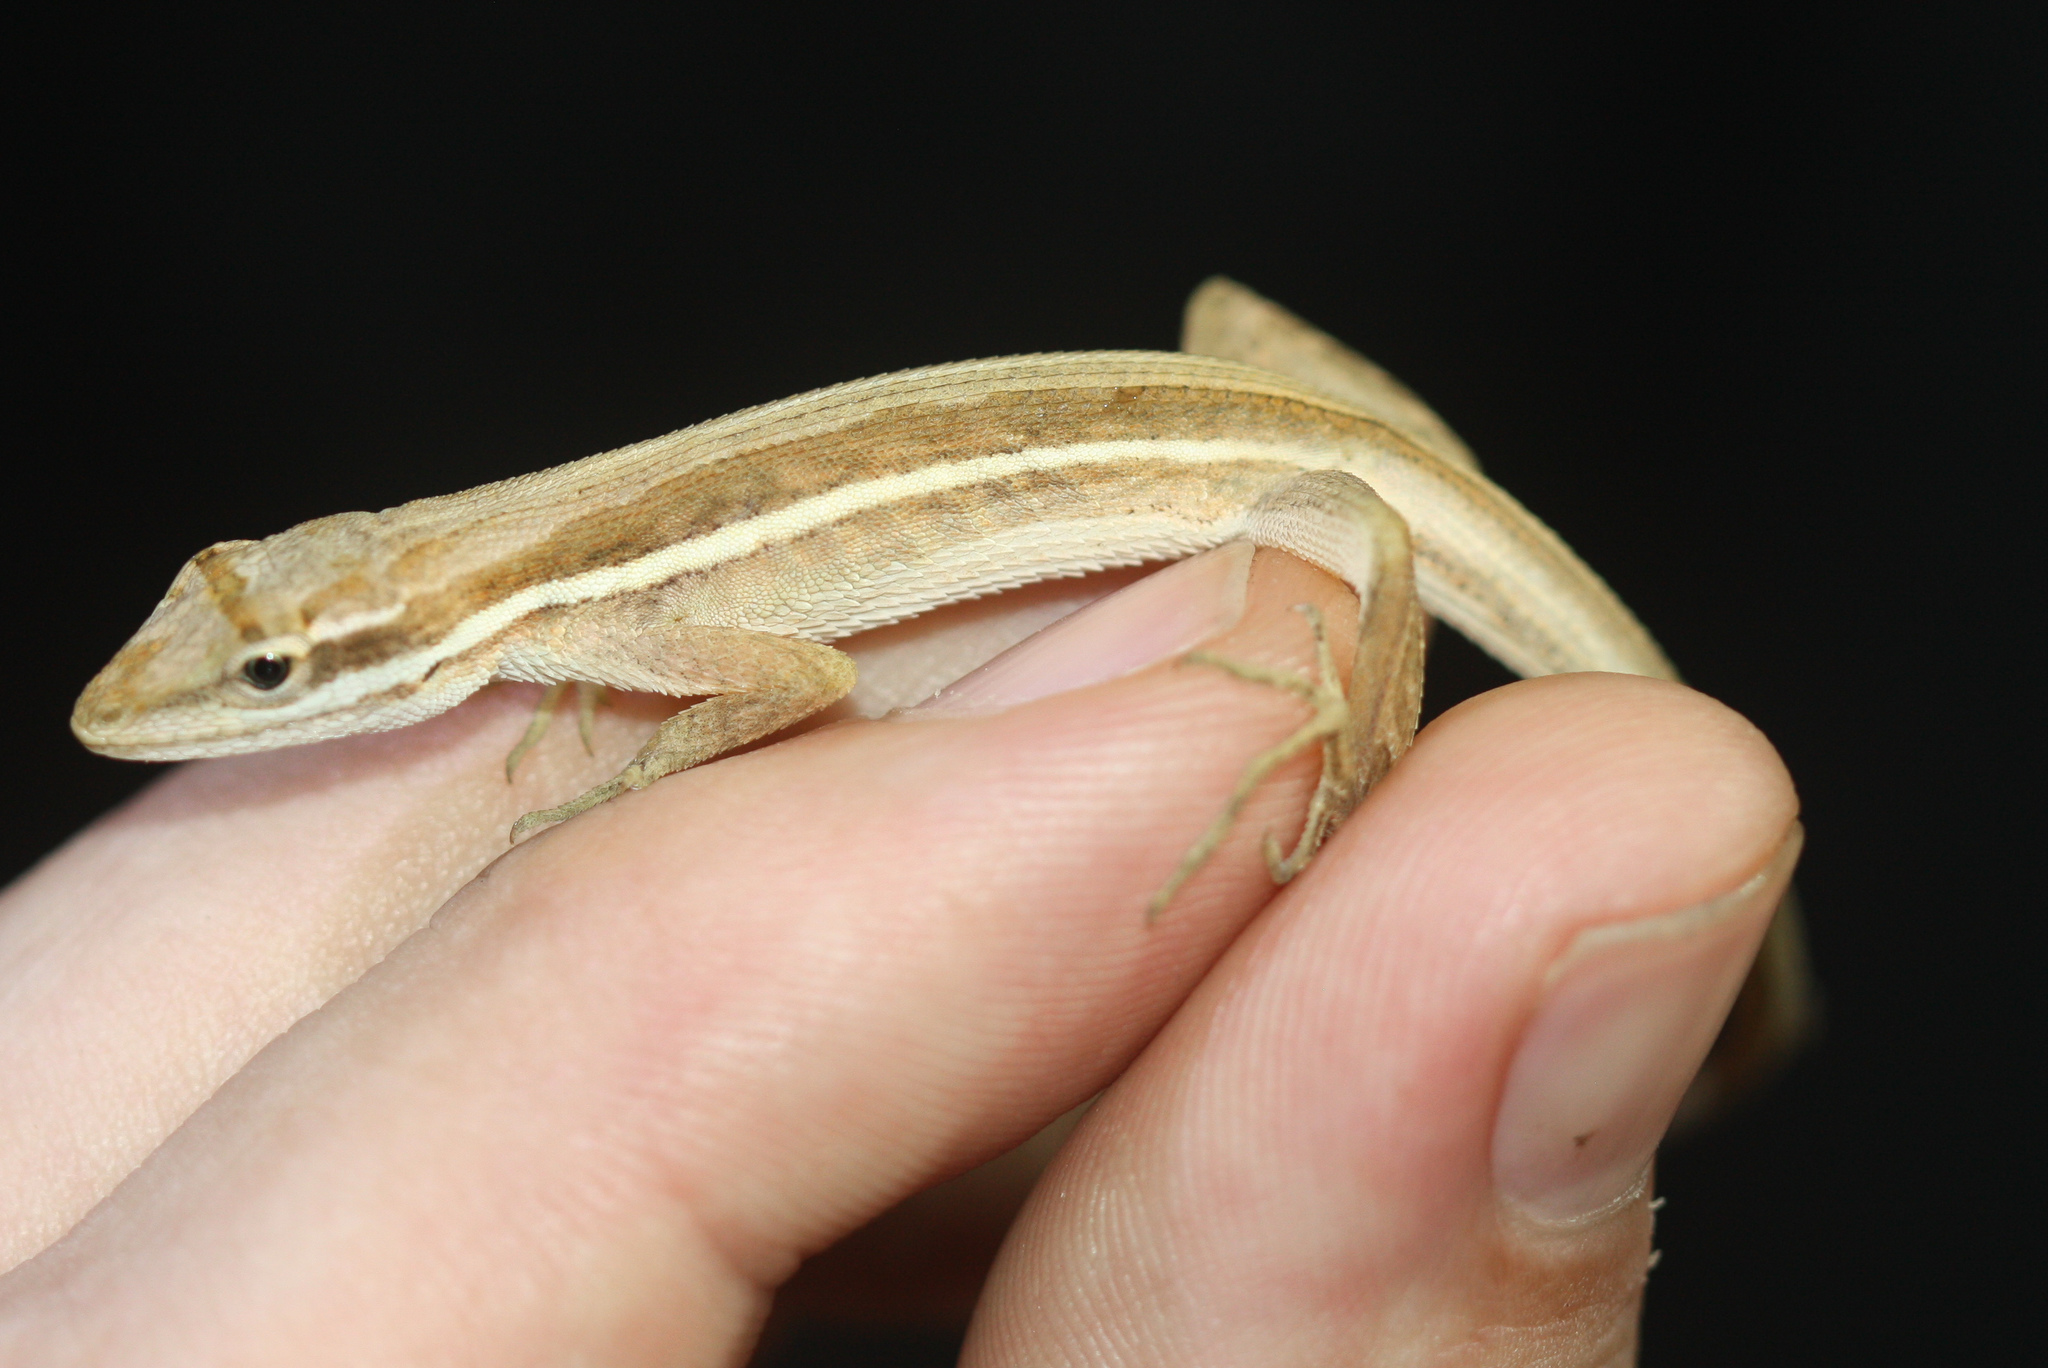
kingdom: Animalia
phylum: Chordata
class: Squamata
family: Dactyloidae
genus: Anolis
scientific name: Anolis auratus
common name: Grass anole
